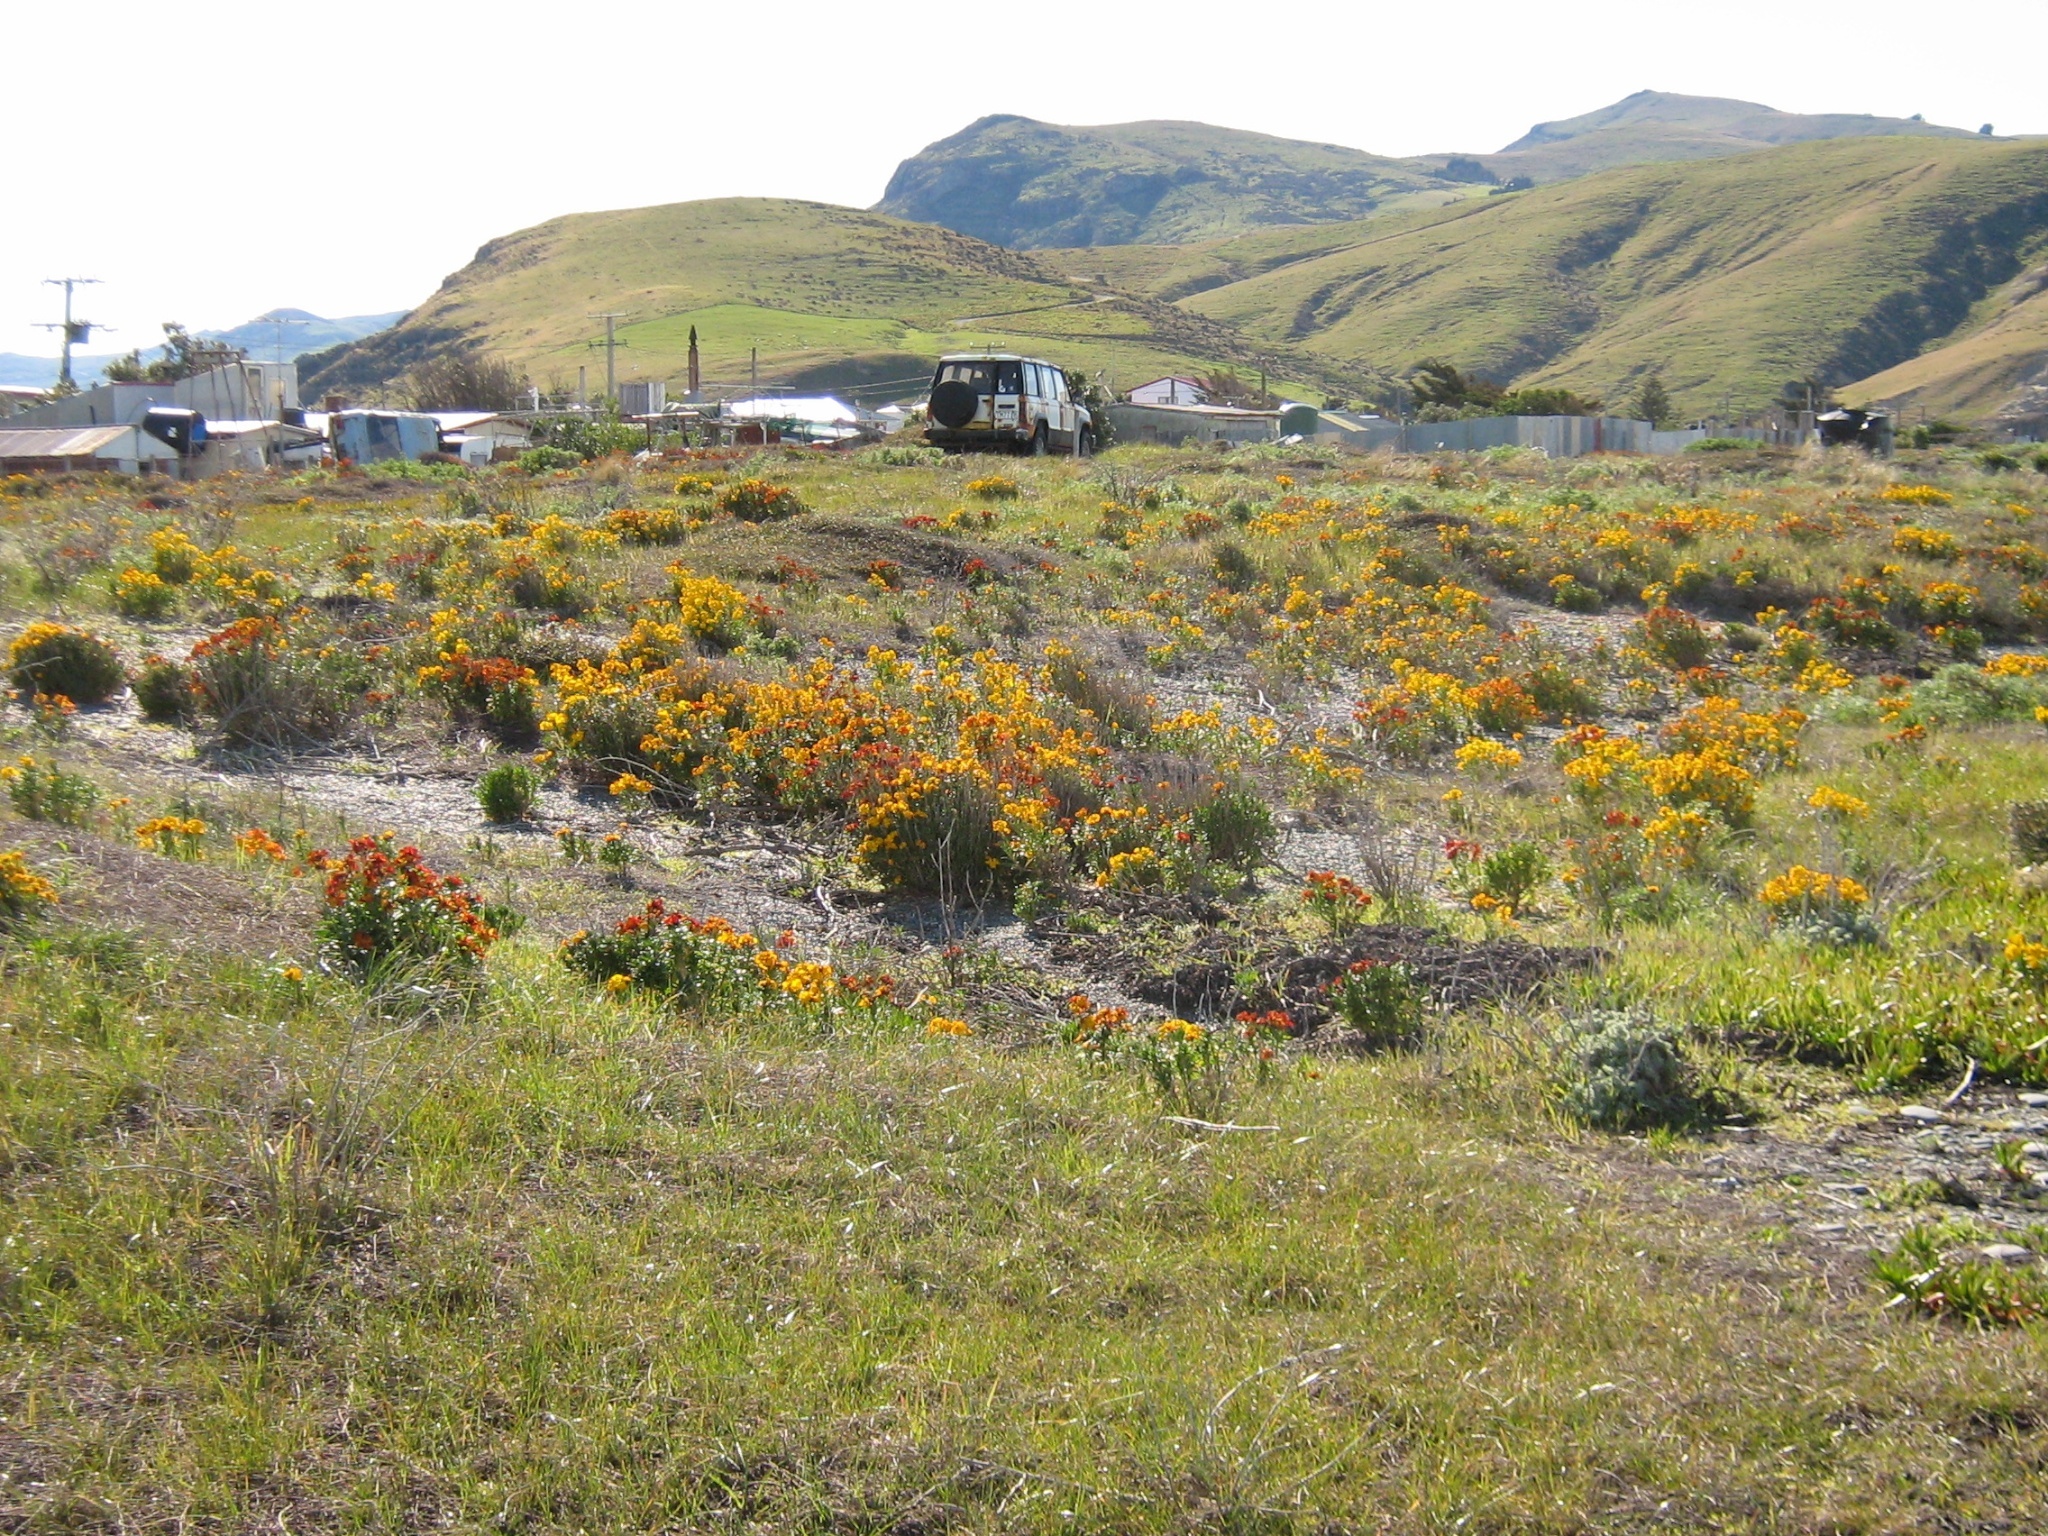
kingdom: Plantae
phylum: Tracheophyta
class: Magnoliopsida
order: Brassicales
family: Brassicaceae
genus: Erysimum
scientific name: Erysimum cheiri
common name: Wallflower
